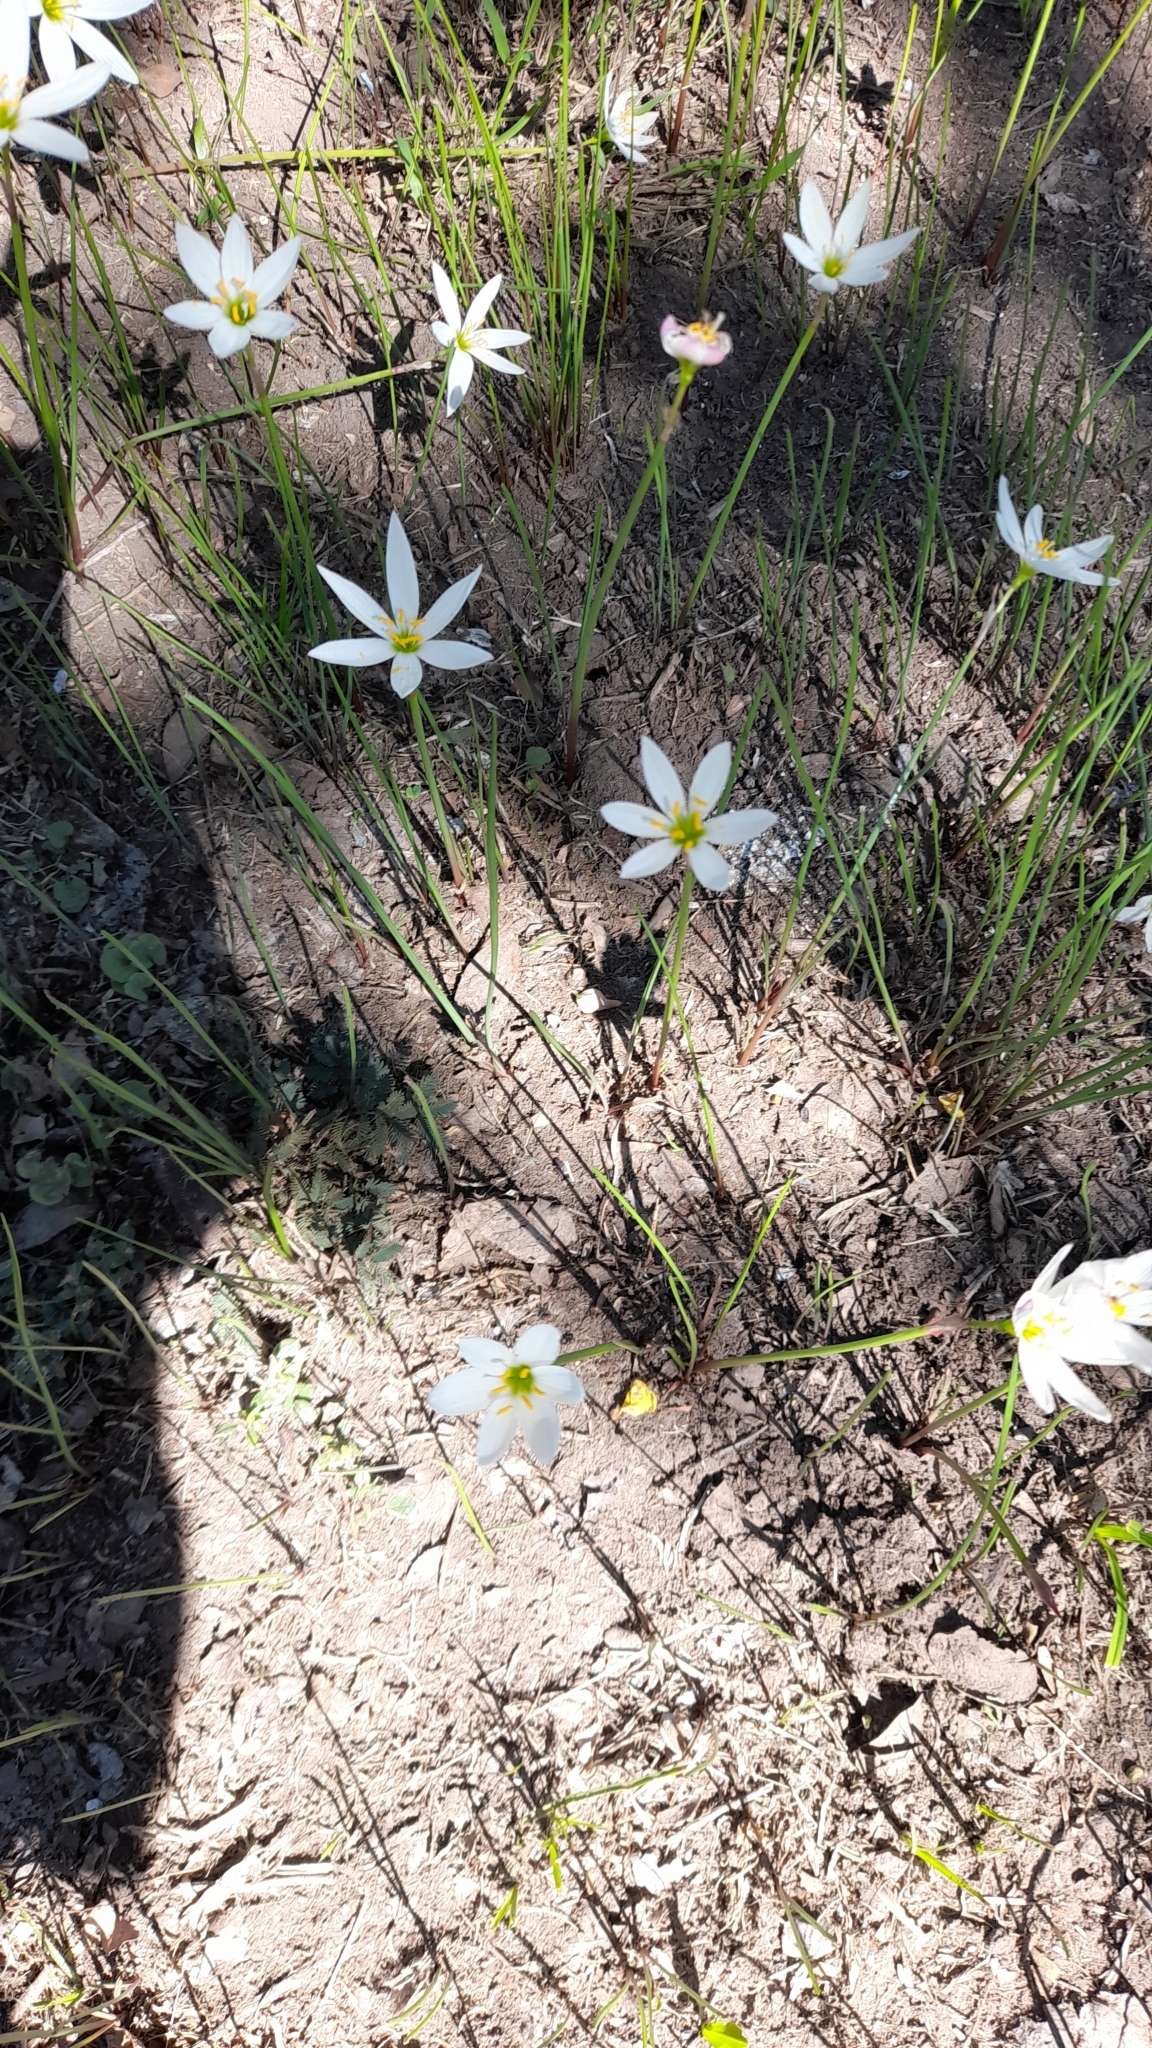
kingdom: Plantae
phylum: Tracheophyta
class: Liliopsida
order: Asparagales
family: Amaryllidaceae
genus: Zephyranthes
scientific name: Zephyranthes candida
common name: Autumn zephyrlily
